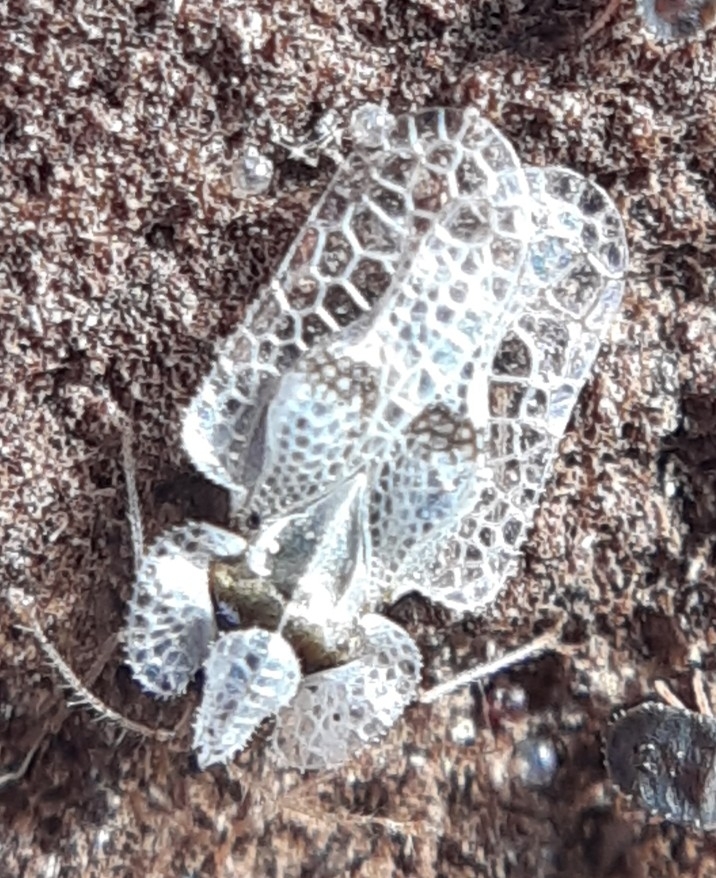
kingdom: Animalia
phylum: Arthropoda
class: Insecta
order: Hemiptera
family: Tingidae
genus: Corythucha
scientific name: Corythucha ciliata
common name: Sycamore lace bug
